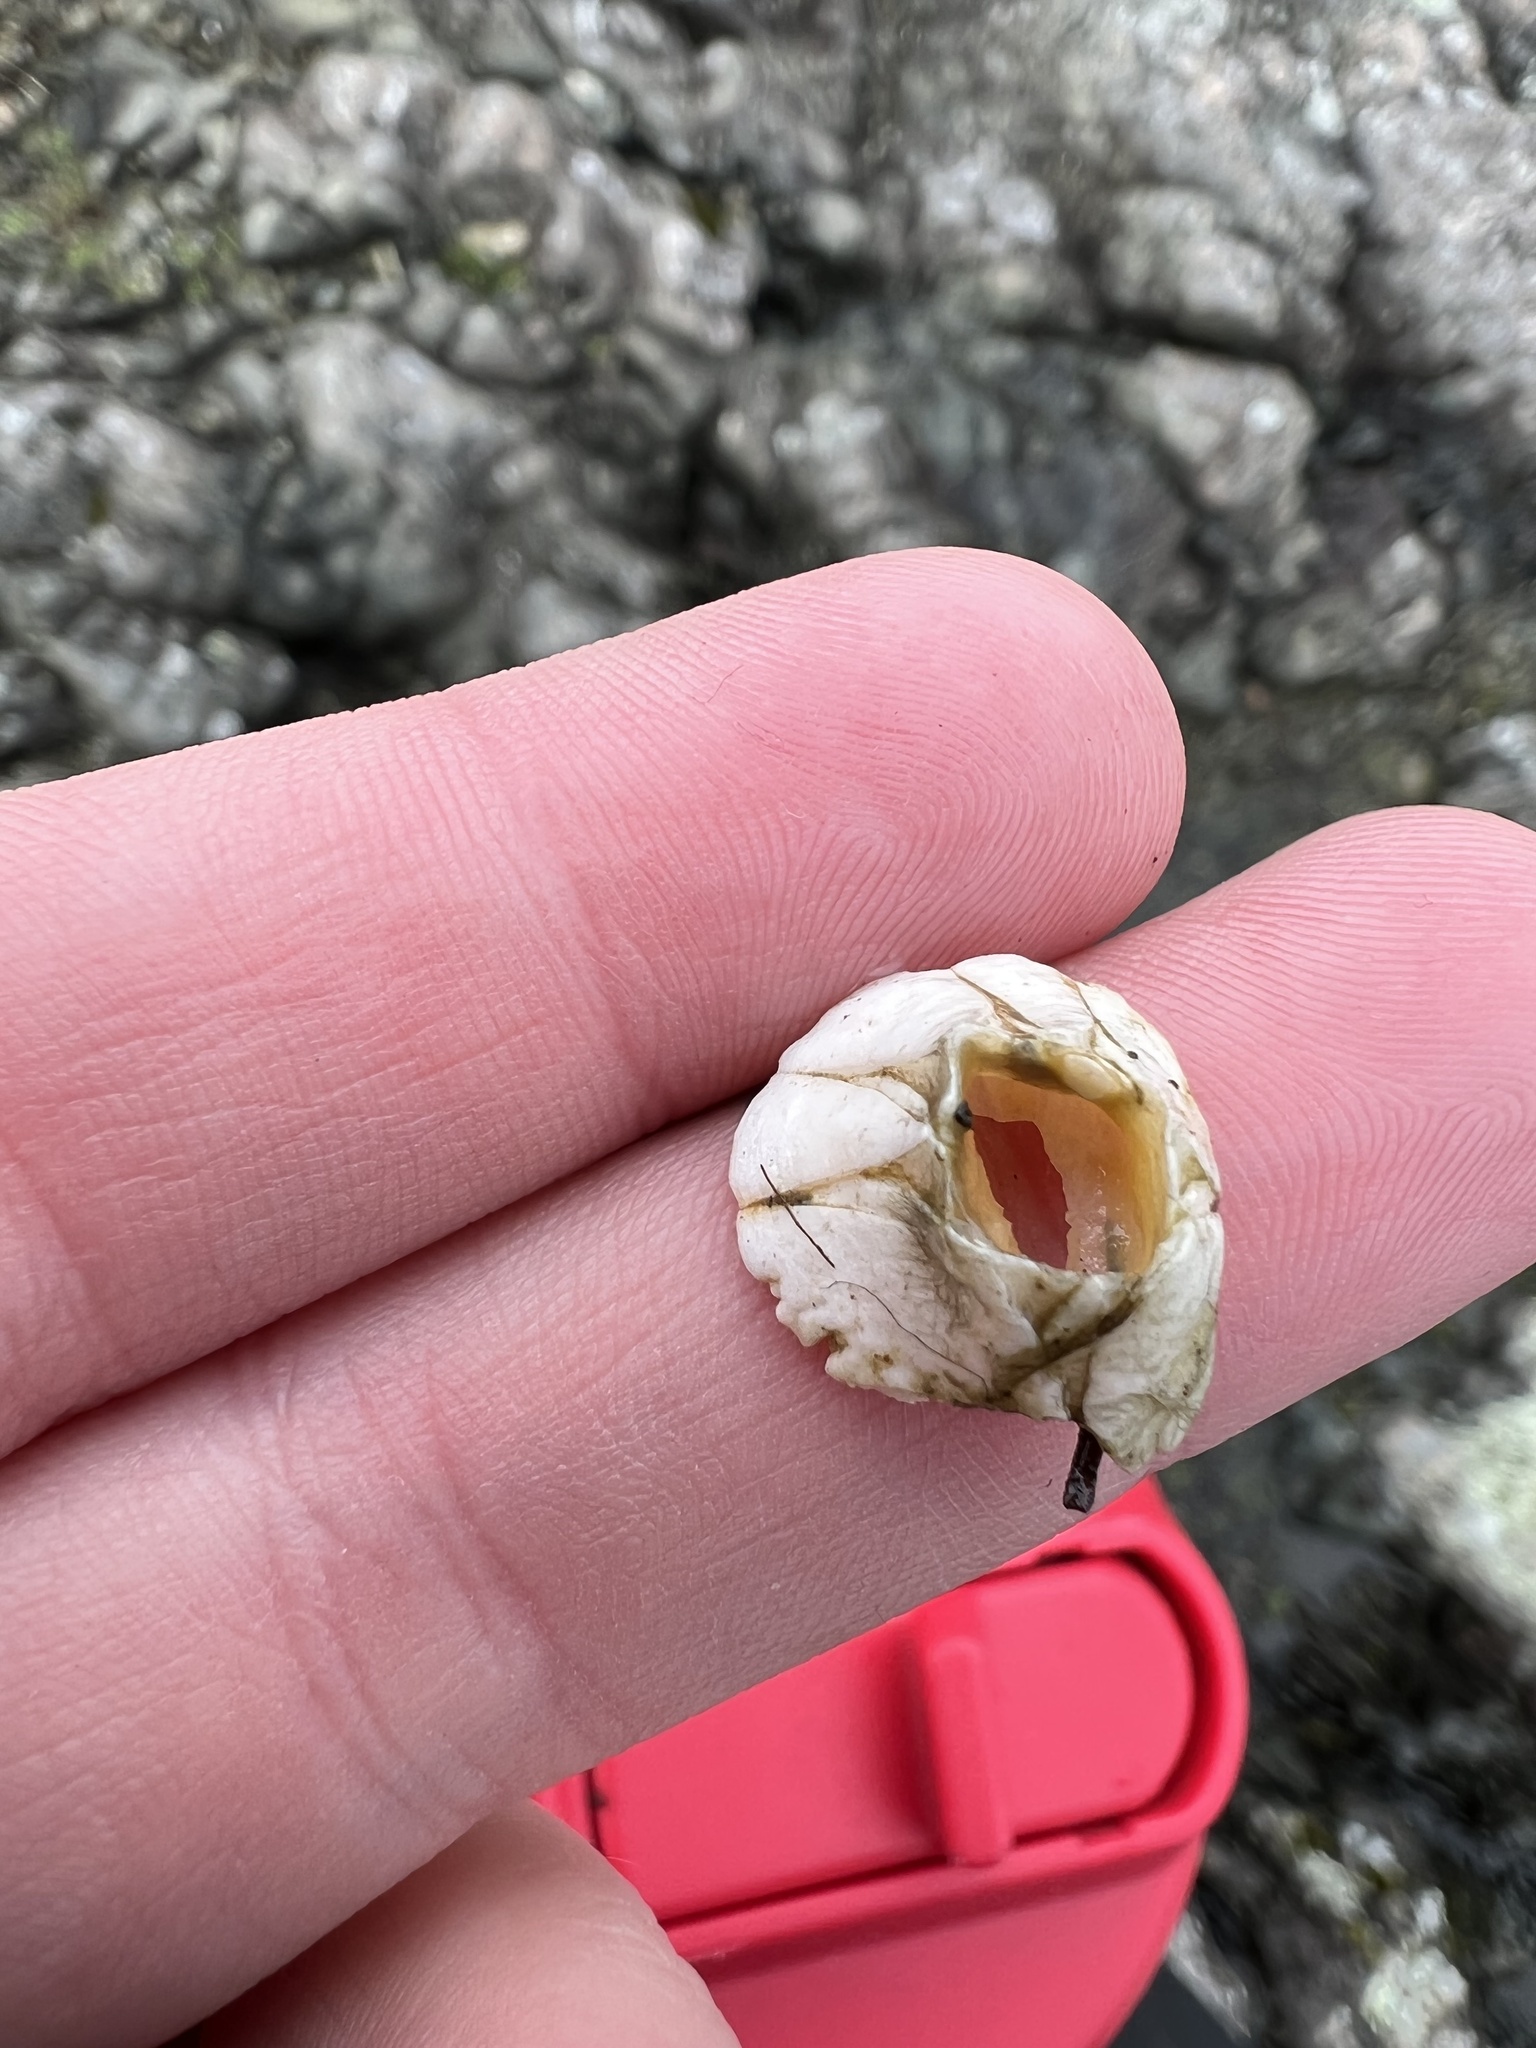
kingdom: Animalia
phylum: Arthropoda
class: Maxillopoda
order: Sessilia
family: Balanidae
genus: Balanus
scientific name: Balanus crenatus
